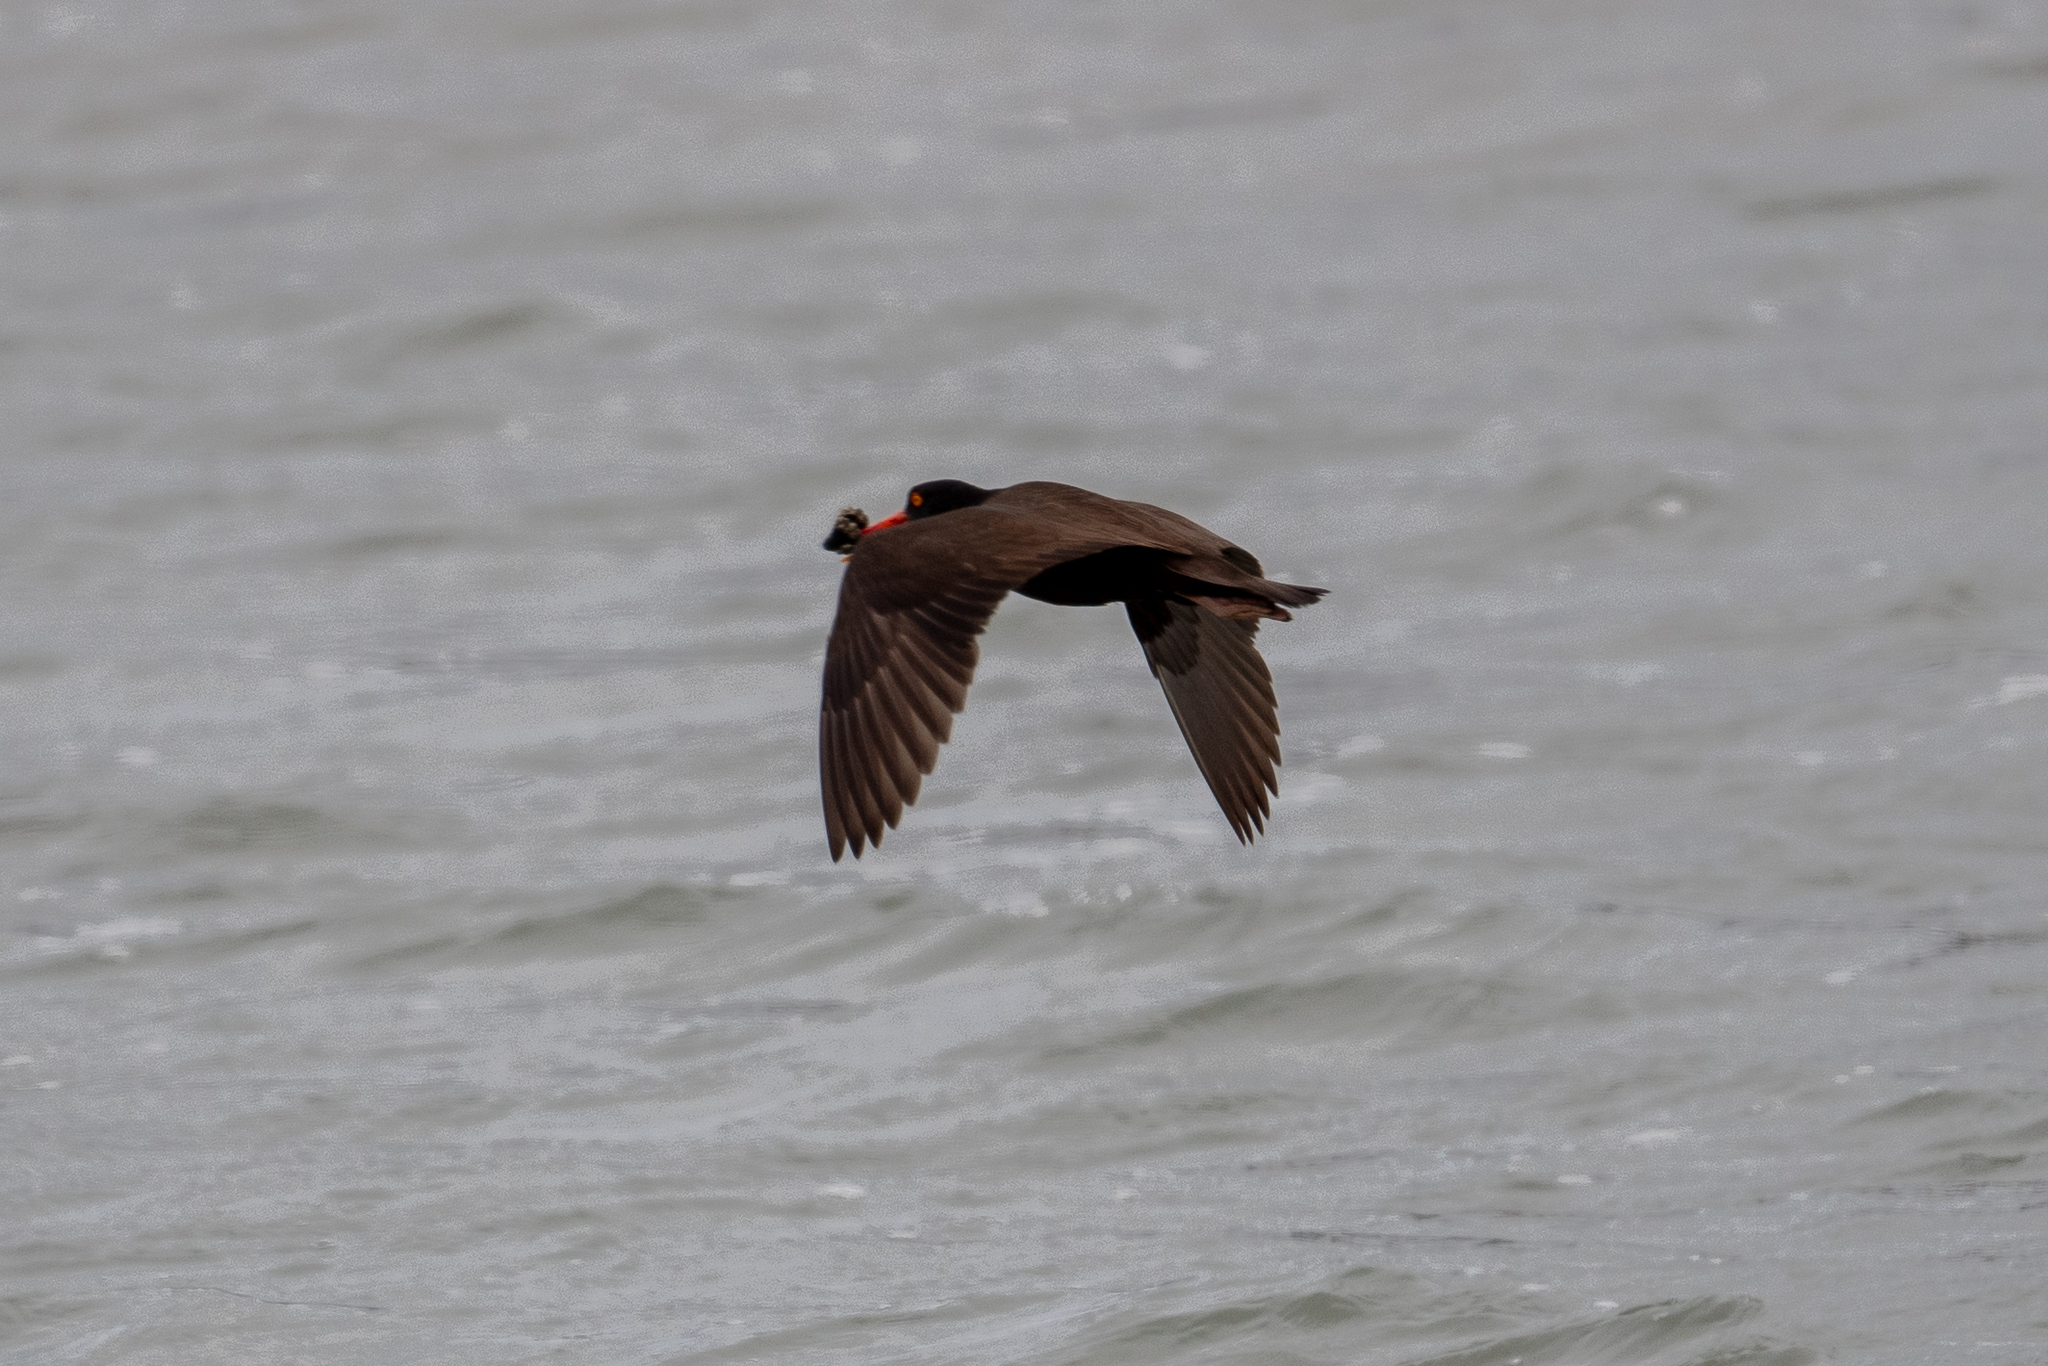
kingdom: Animalia
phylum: Chordata
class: Aves
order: Charadriiformes
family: Haematopodidae
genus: Haematopus
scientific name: Haematopus bachmani
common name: Black oystercatcher
